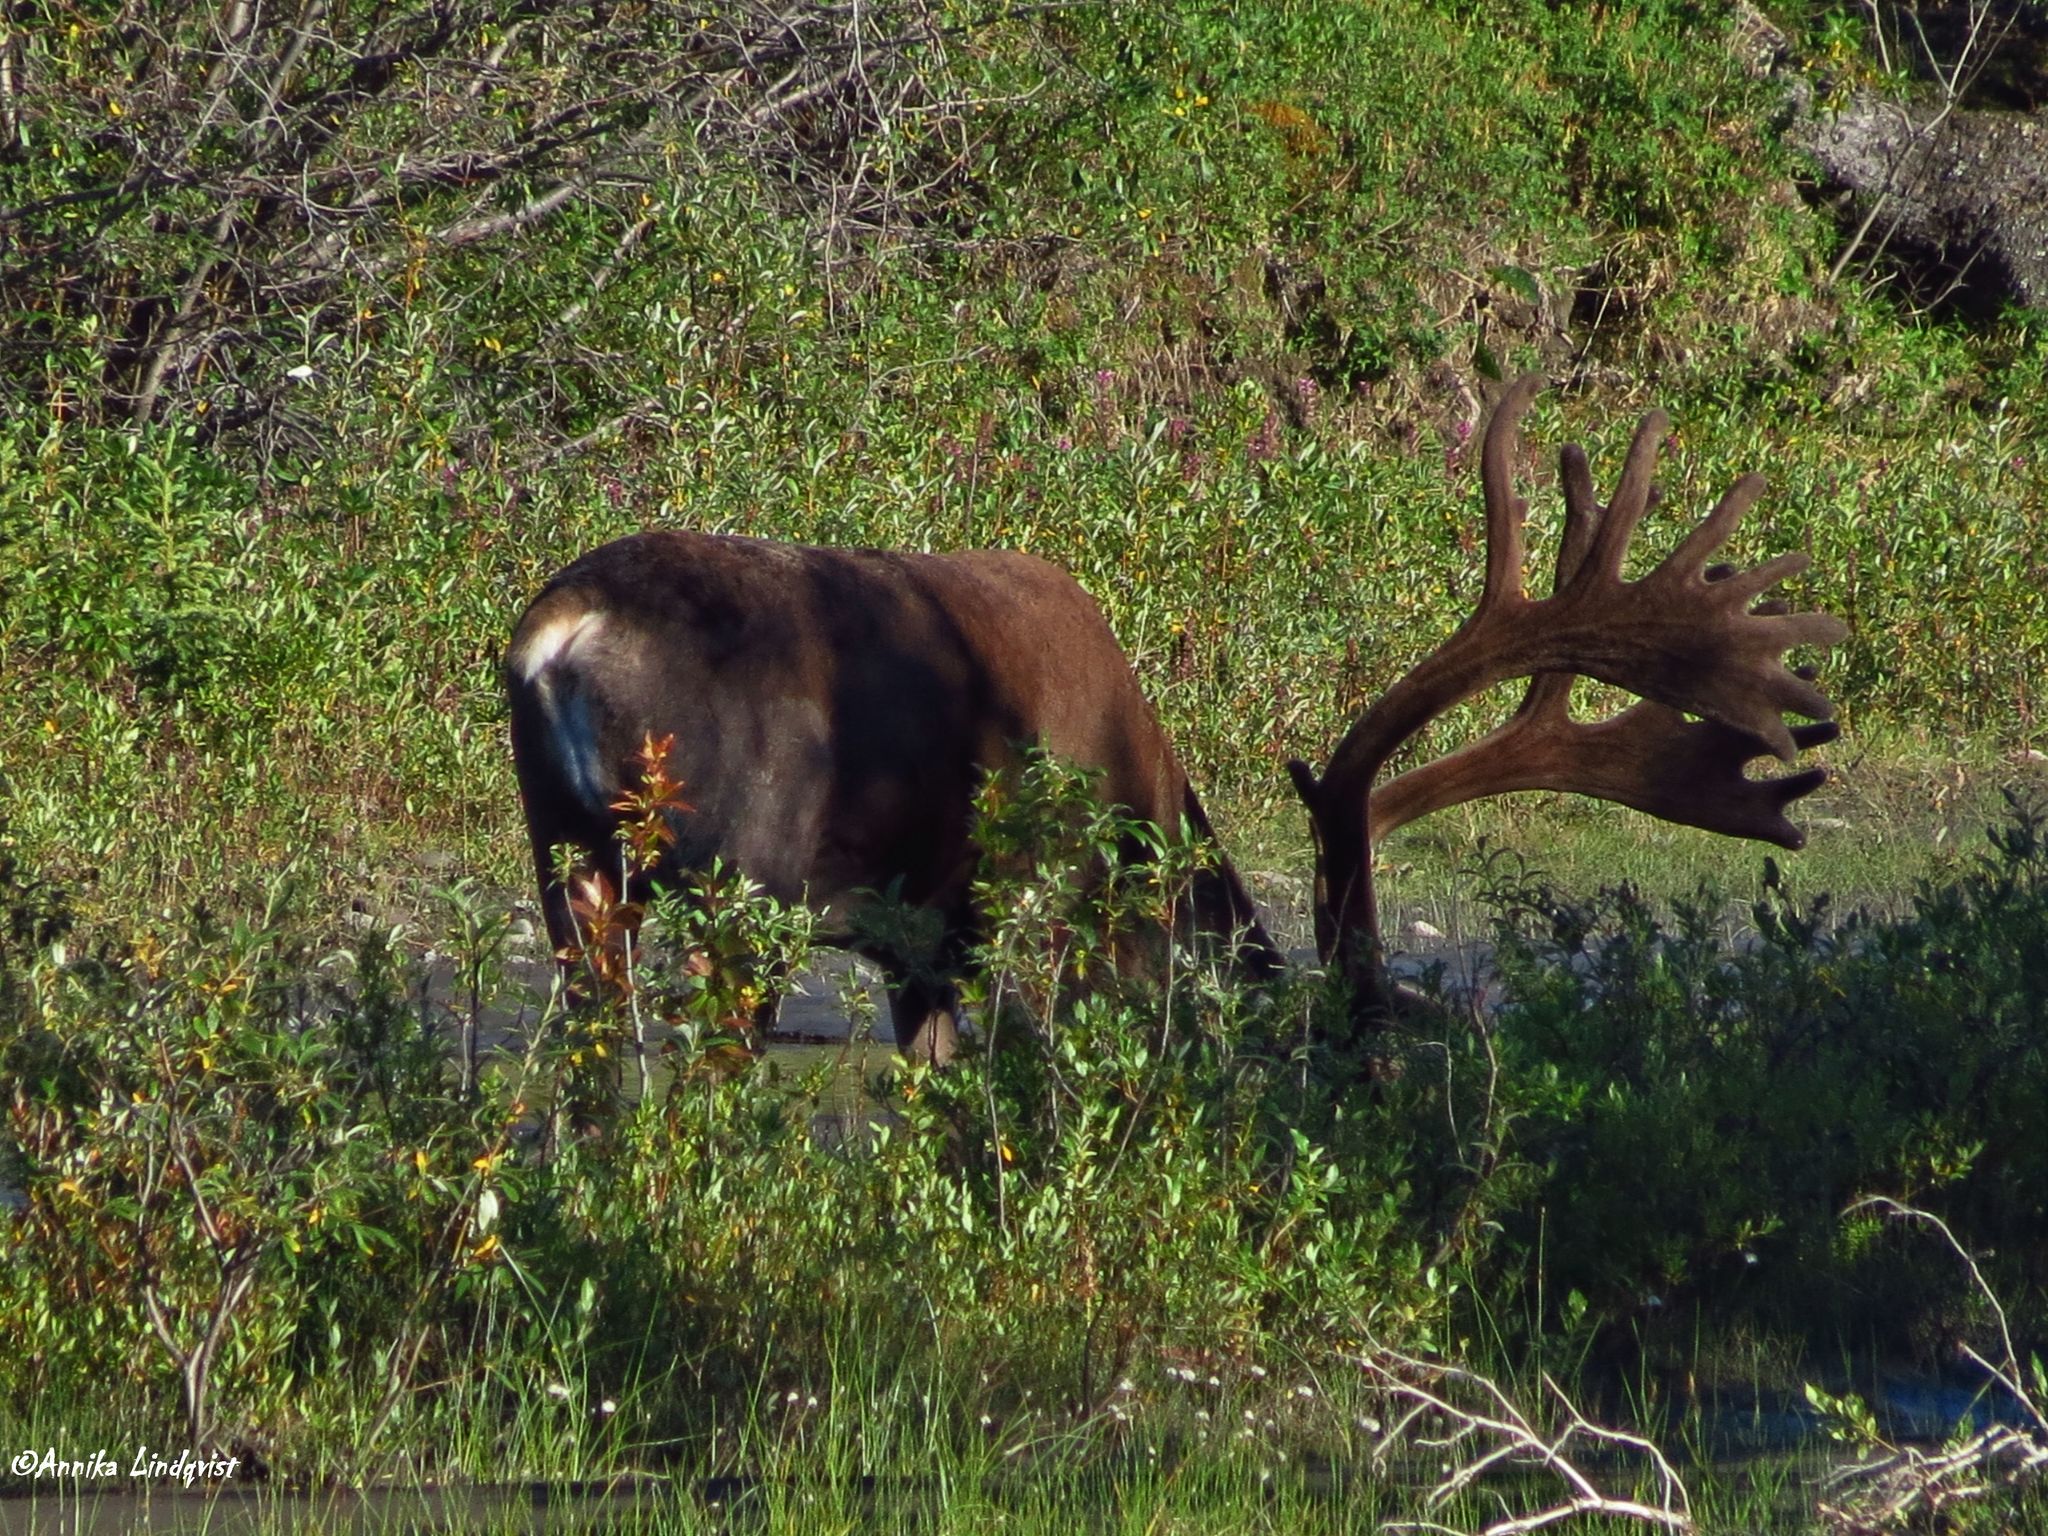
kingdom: Animalia
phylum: Chordata
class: Mammalia
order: Artiodactyla
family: Cervidae
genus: Rangifer
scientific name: Rangifer tarandus
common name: Reindeer
